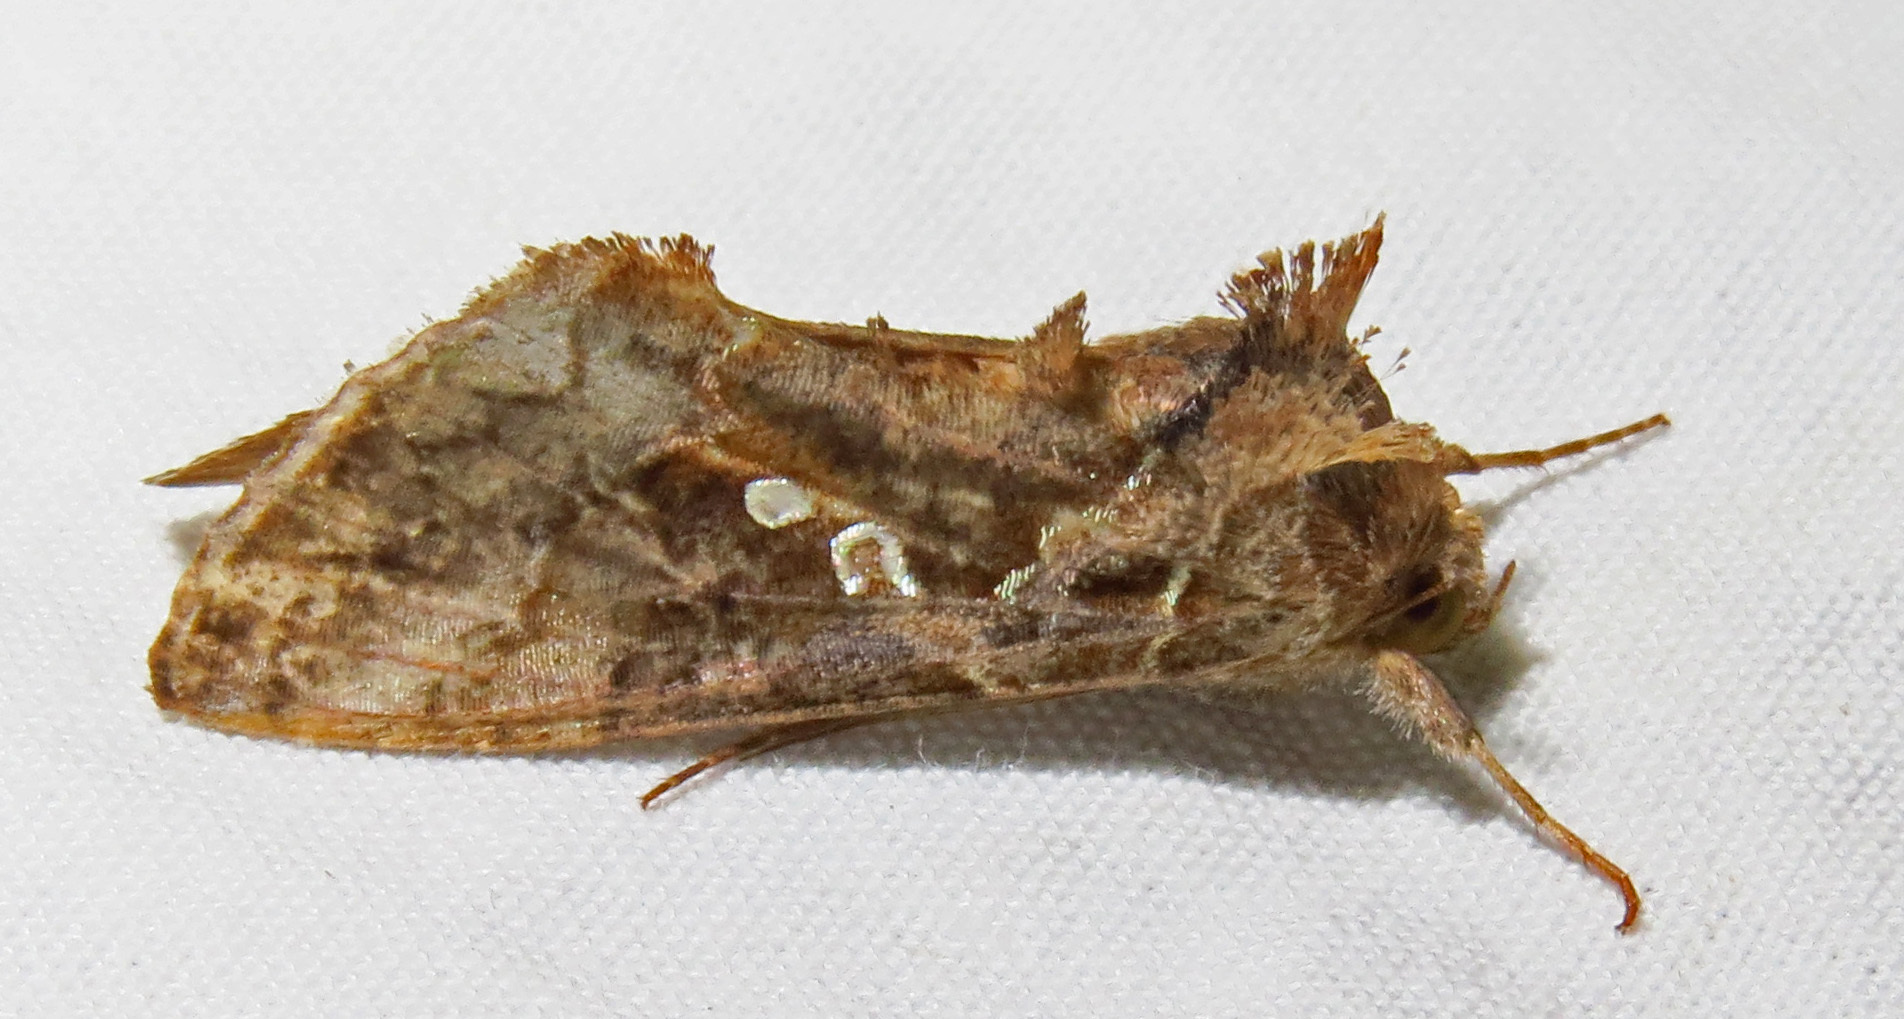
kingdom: Animalia
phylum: Arthropoda
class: Insecta
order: Lepidoptera
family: Noctuidae
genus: Chrysodeixis
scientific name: Chrysodeixis includens
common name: Cutworm moth
